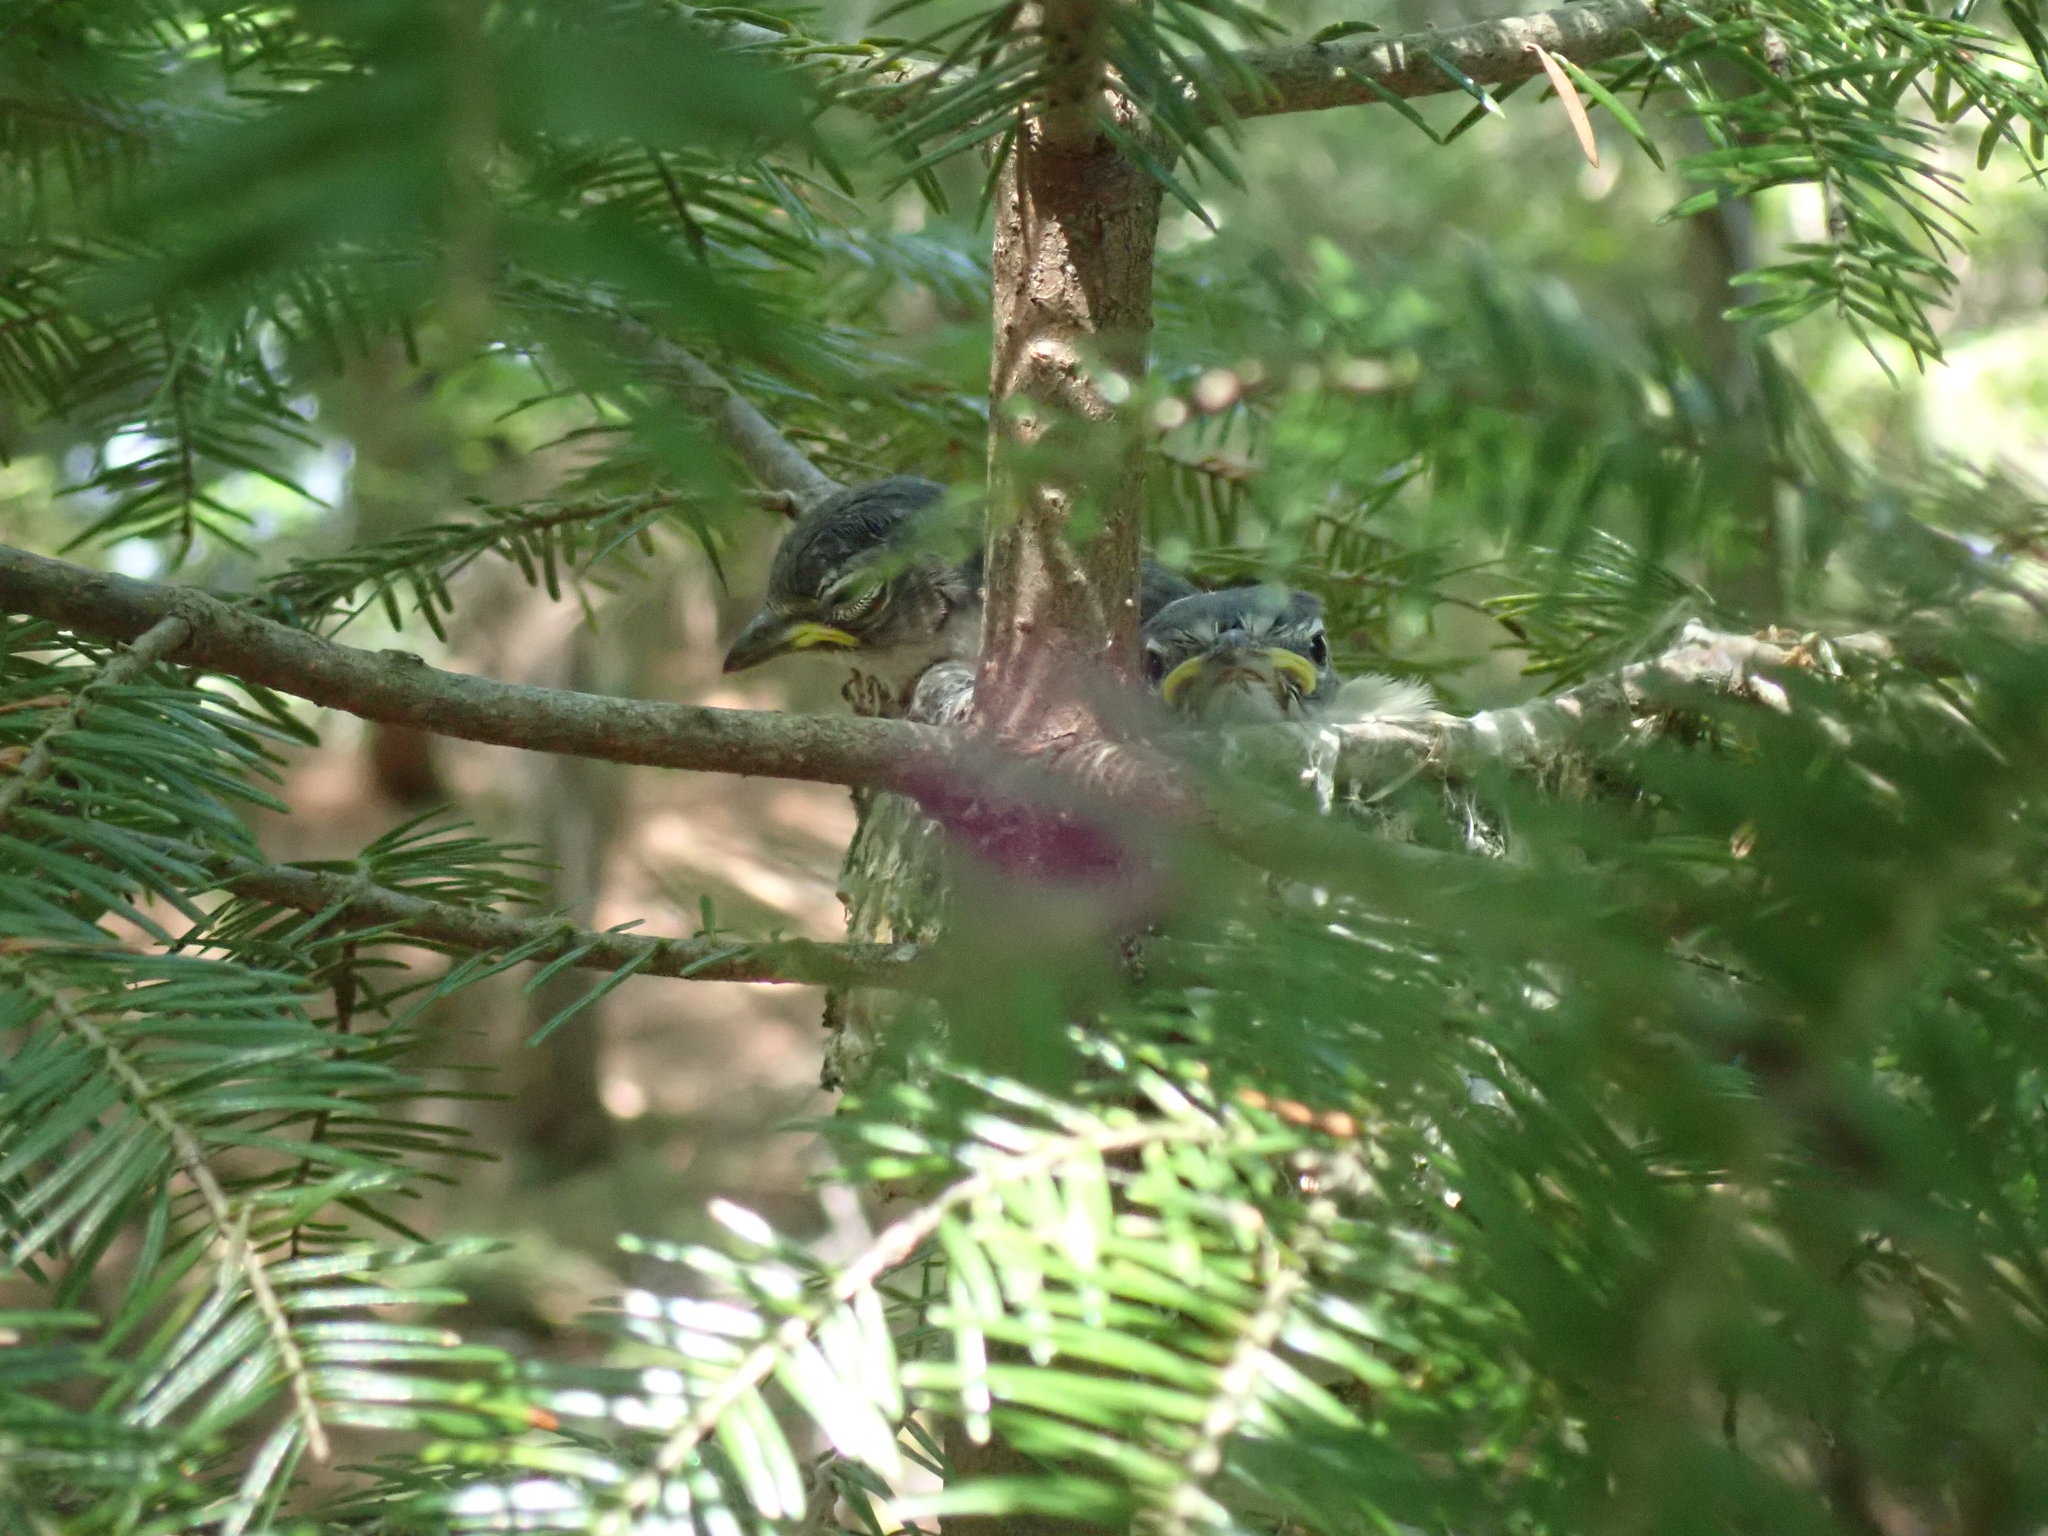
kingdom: Animalia
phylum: Chordata
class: Aves
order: Passeriformes
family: Turdidae
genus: Turdus
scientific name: Turdus migratorius
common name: American robin
